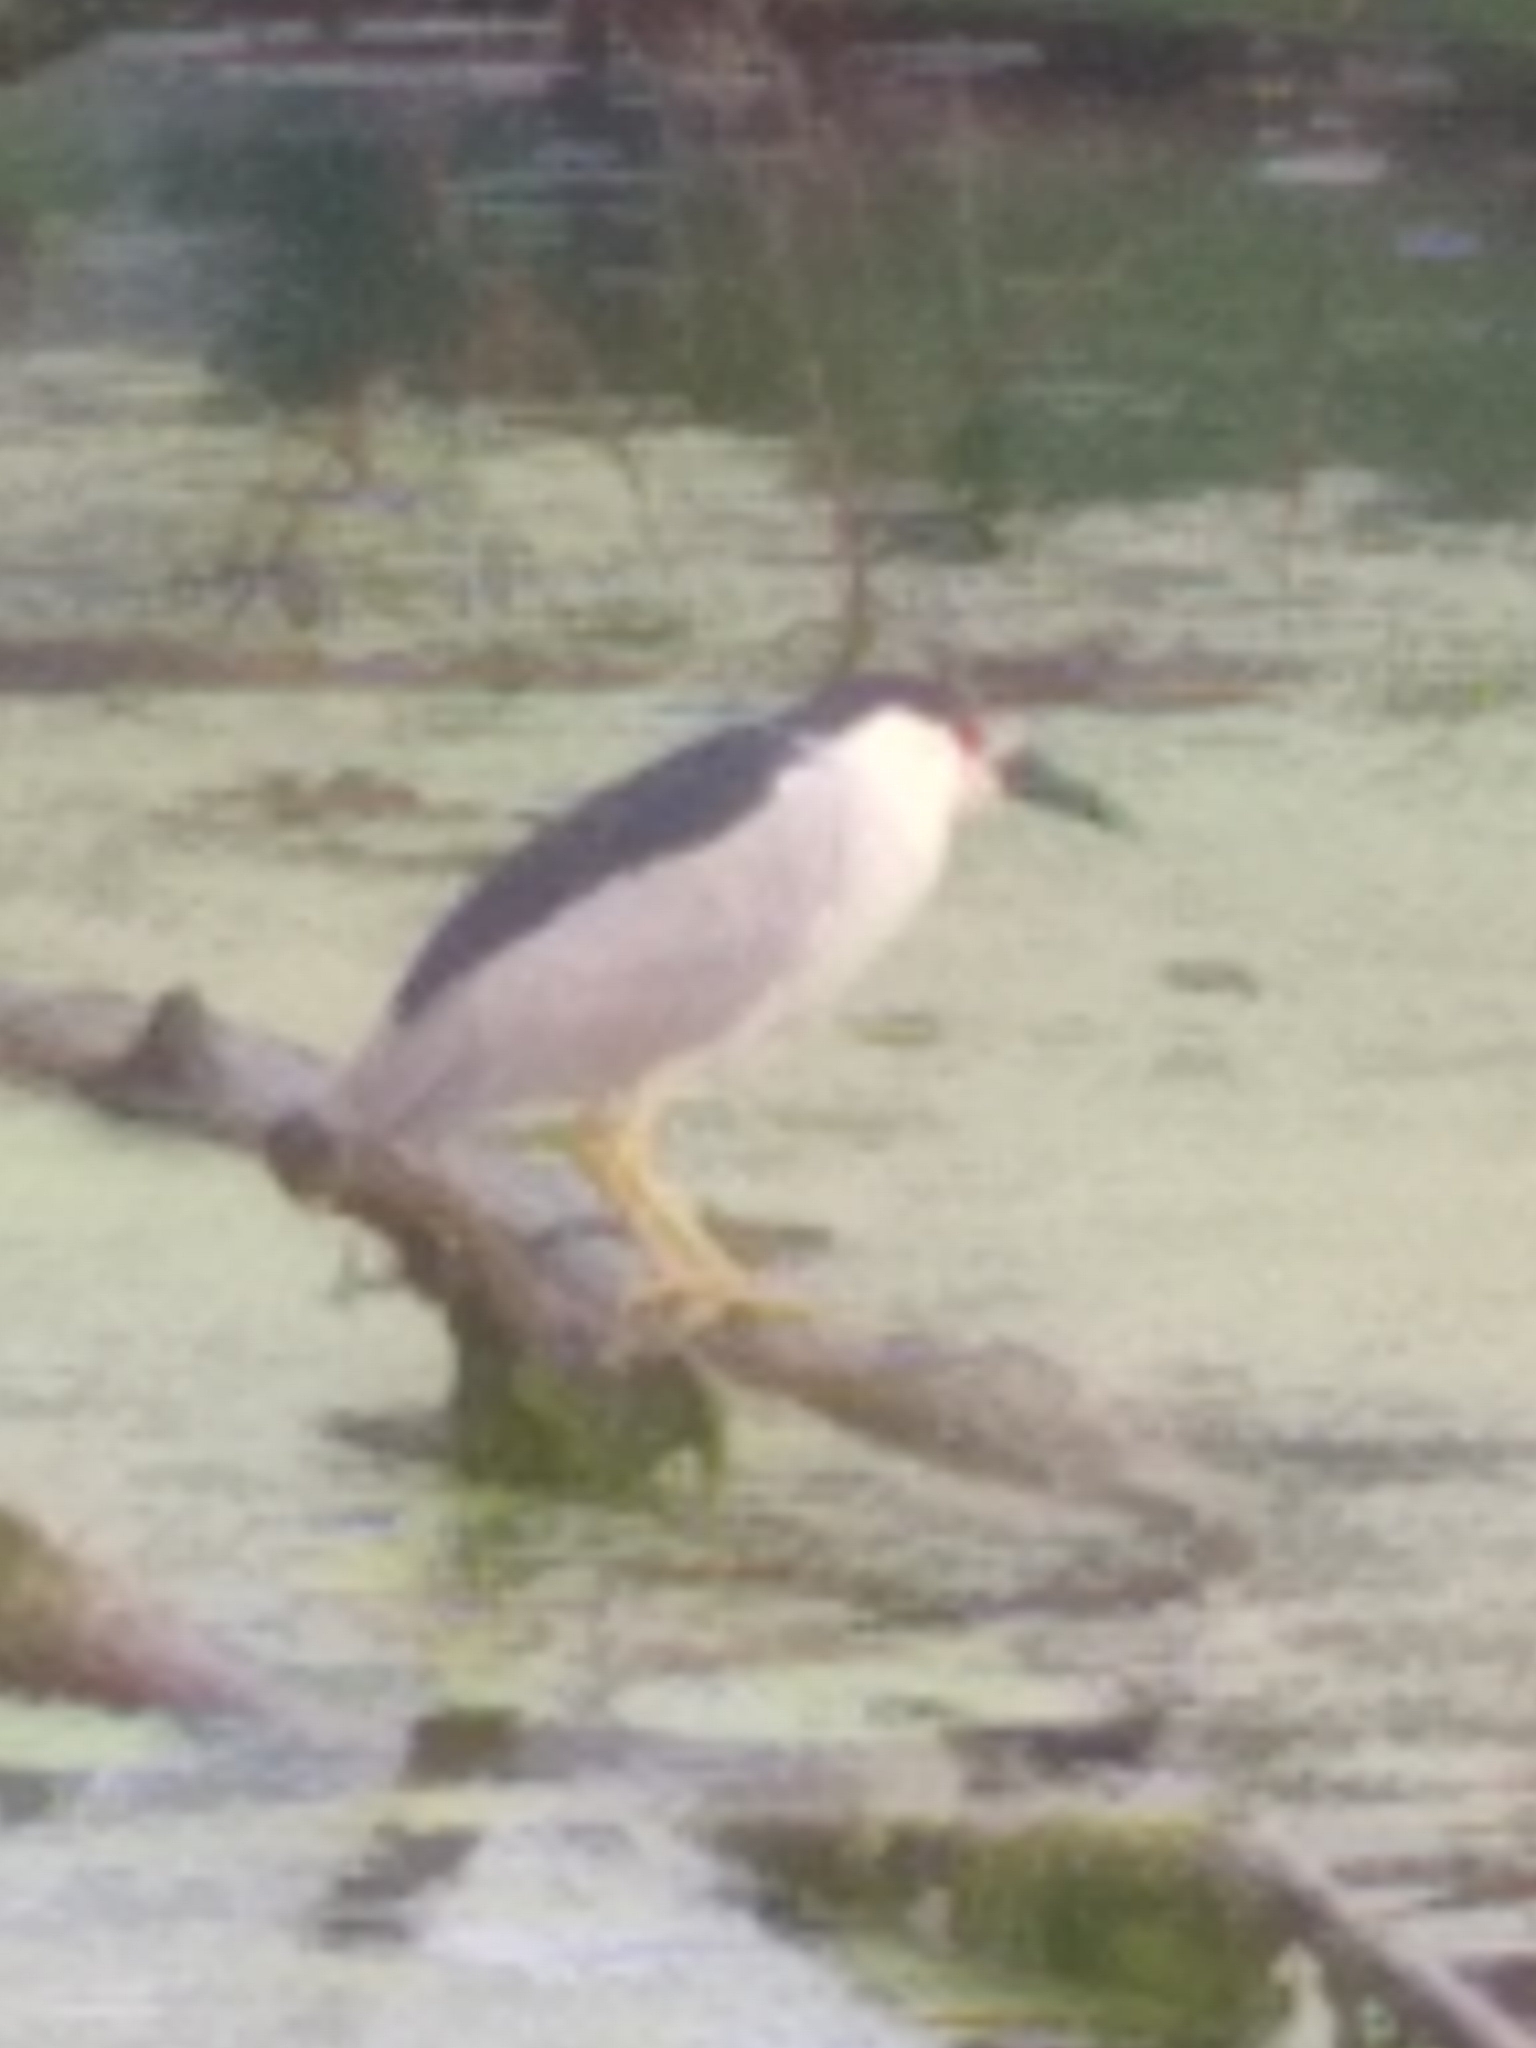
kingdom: Animalia
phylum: Chordata
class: Aves
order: Pelecaniformes
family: Ardeidae
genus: Nycticorax
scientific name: Nycticorax nycticorax
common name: Black-crowned night heron
